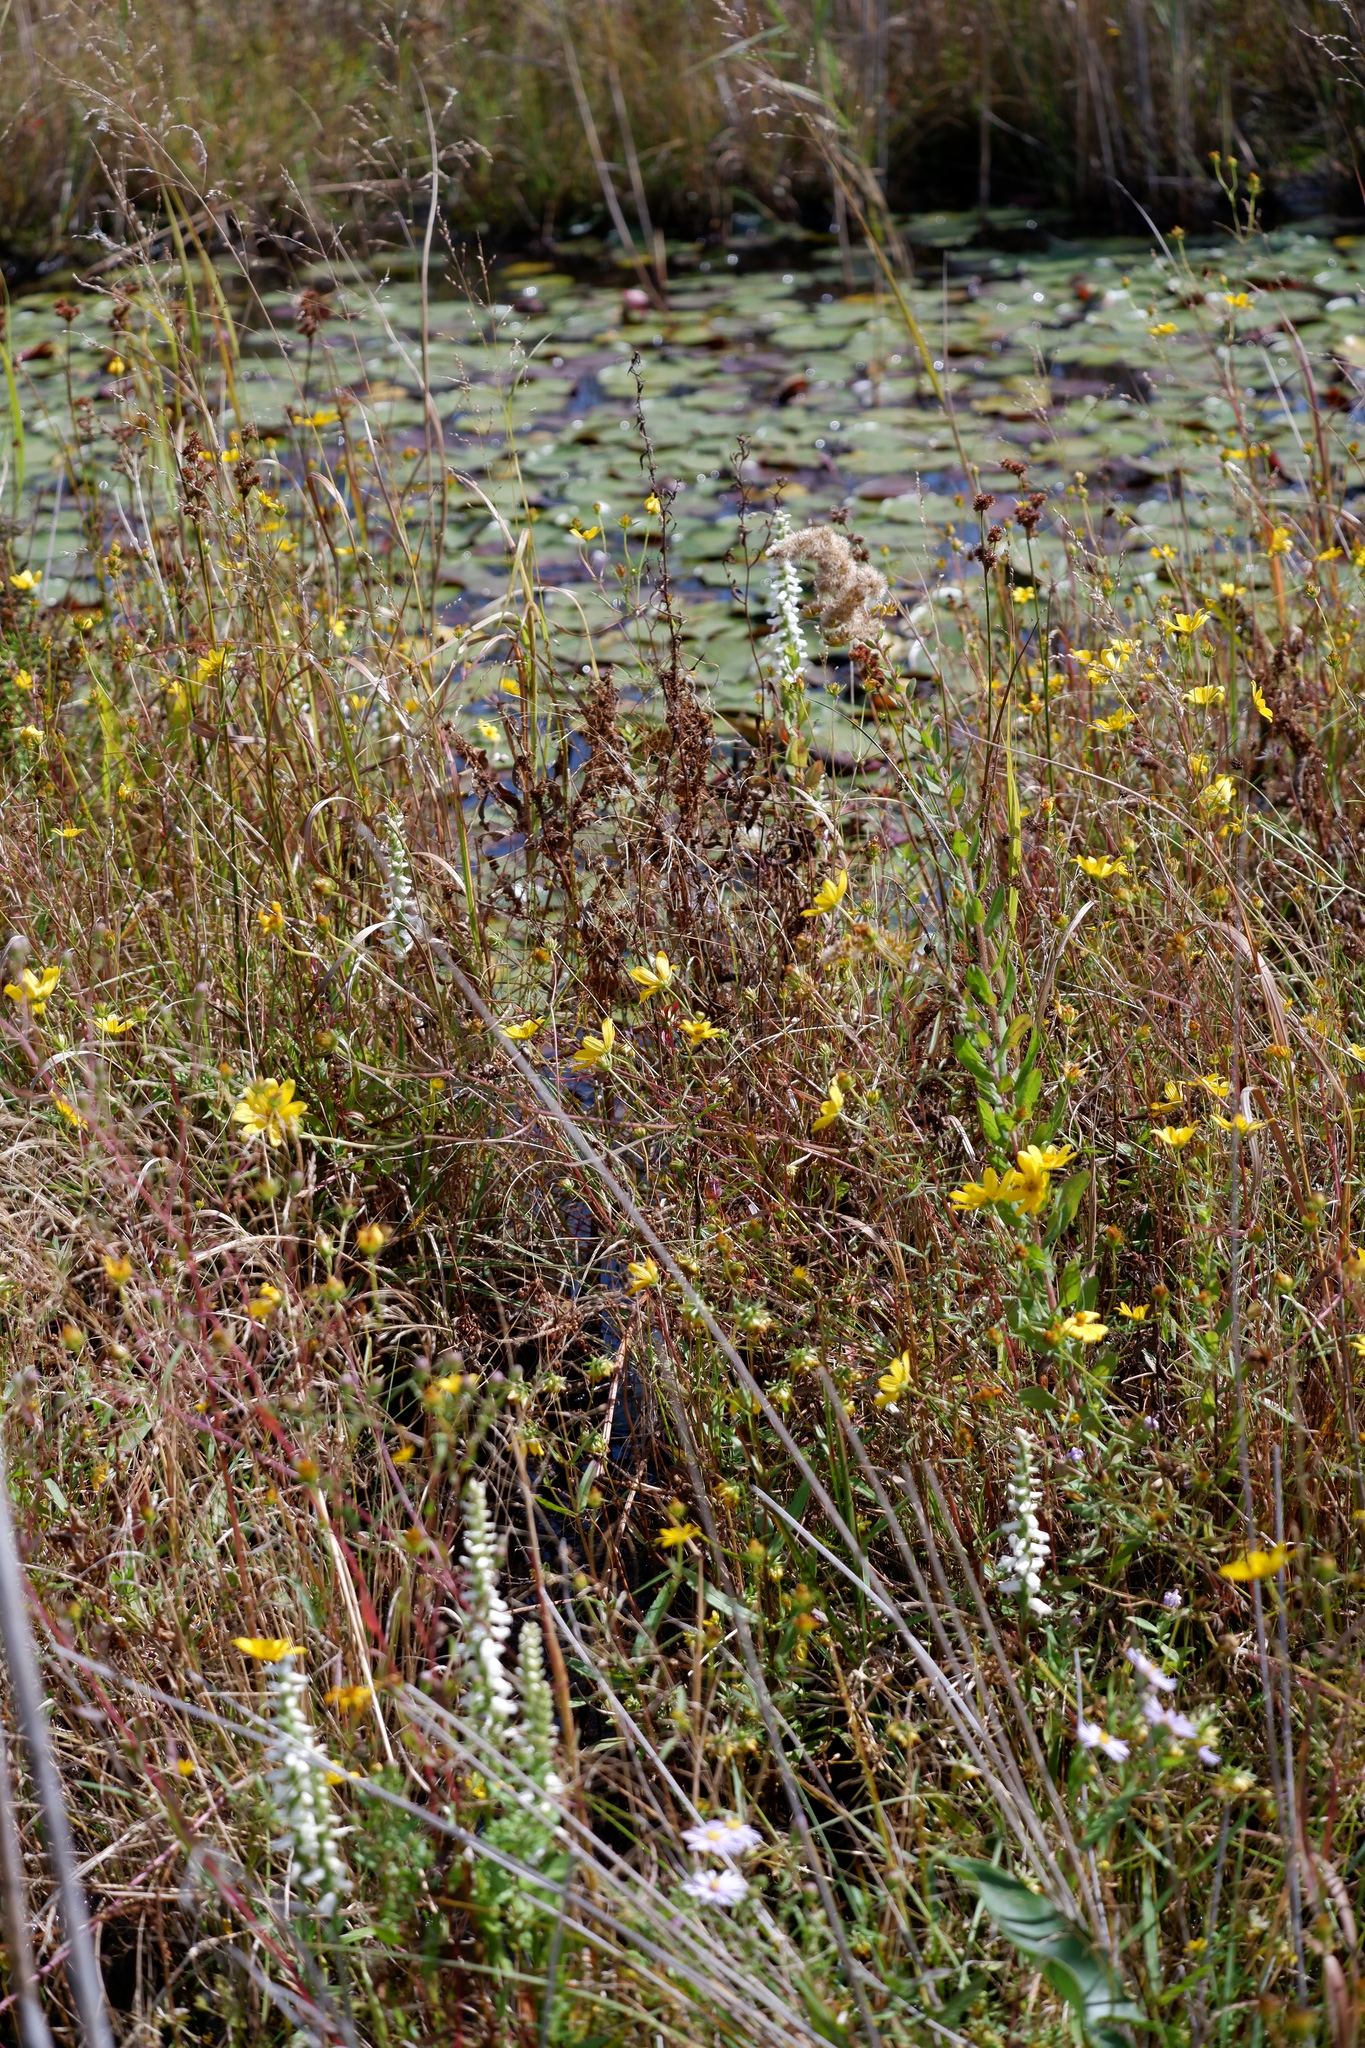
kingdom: Plantae
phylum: Tracheophyta
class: Liliopsida
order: Asparagales
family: Orchidaceae
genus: Spiranthes
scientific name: Spiranthes bightensis
